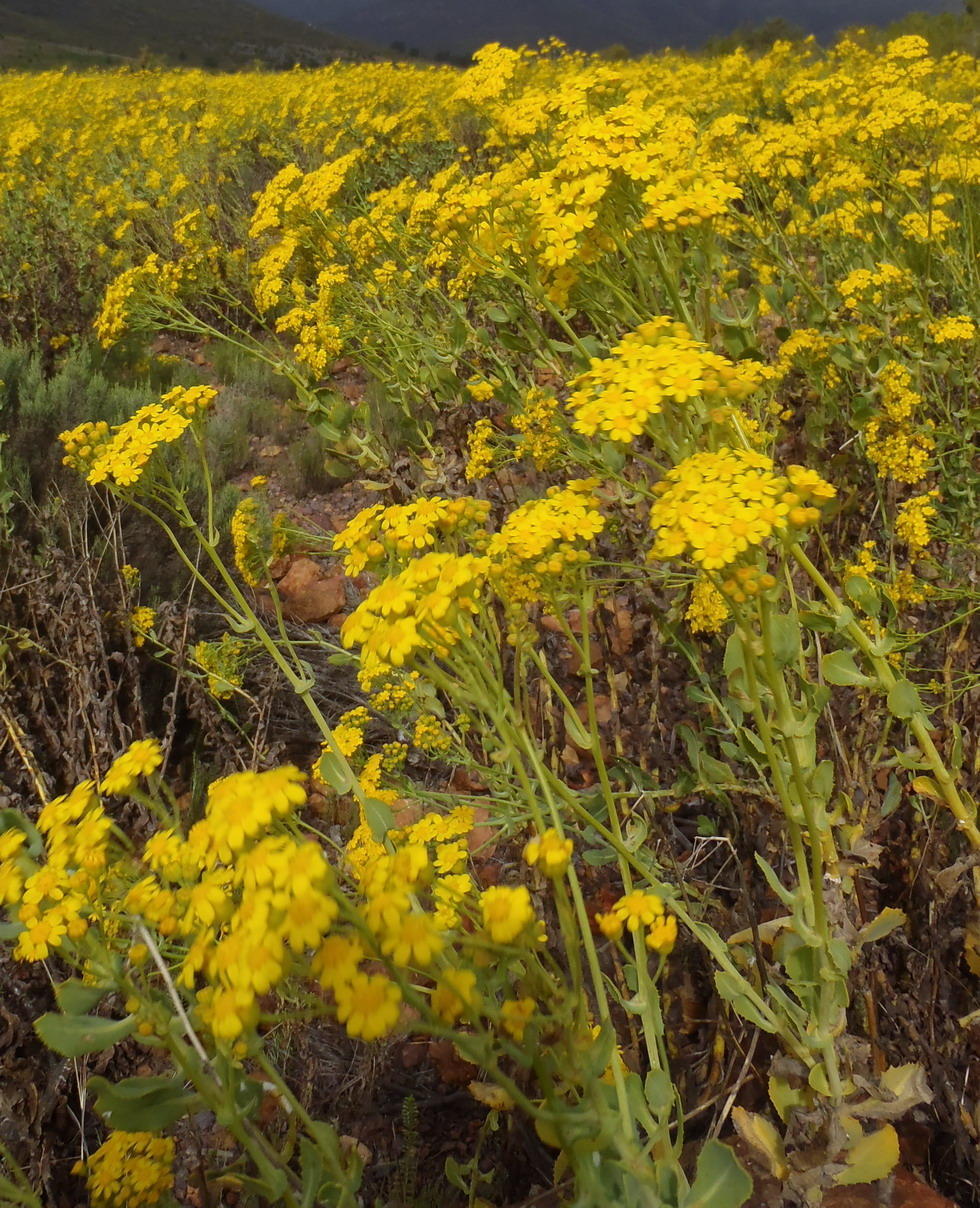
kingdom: Plantae
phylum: Tracheophyta
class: Magnoliopsida
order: Asterales
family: Asteraceae
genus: Othonna
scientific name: Othonna parviflora
